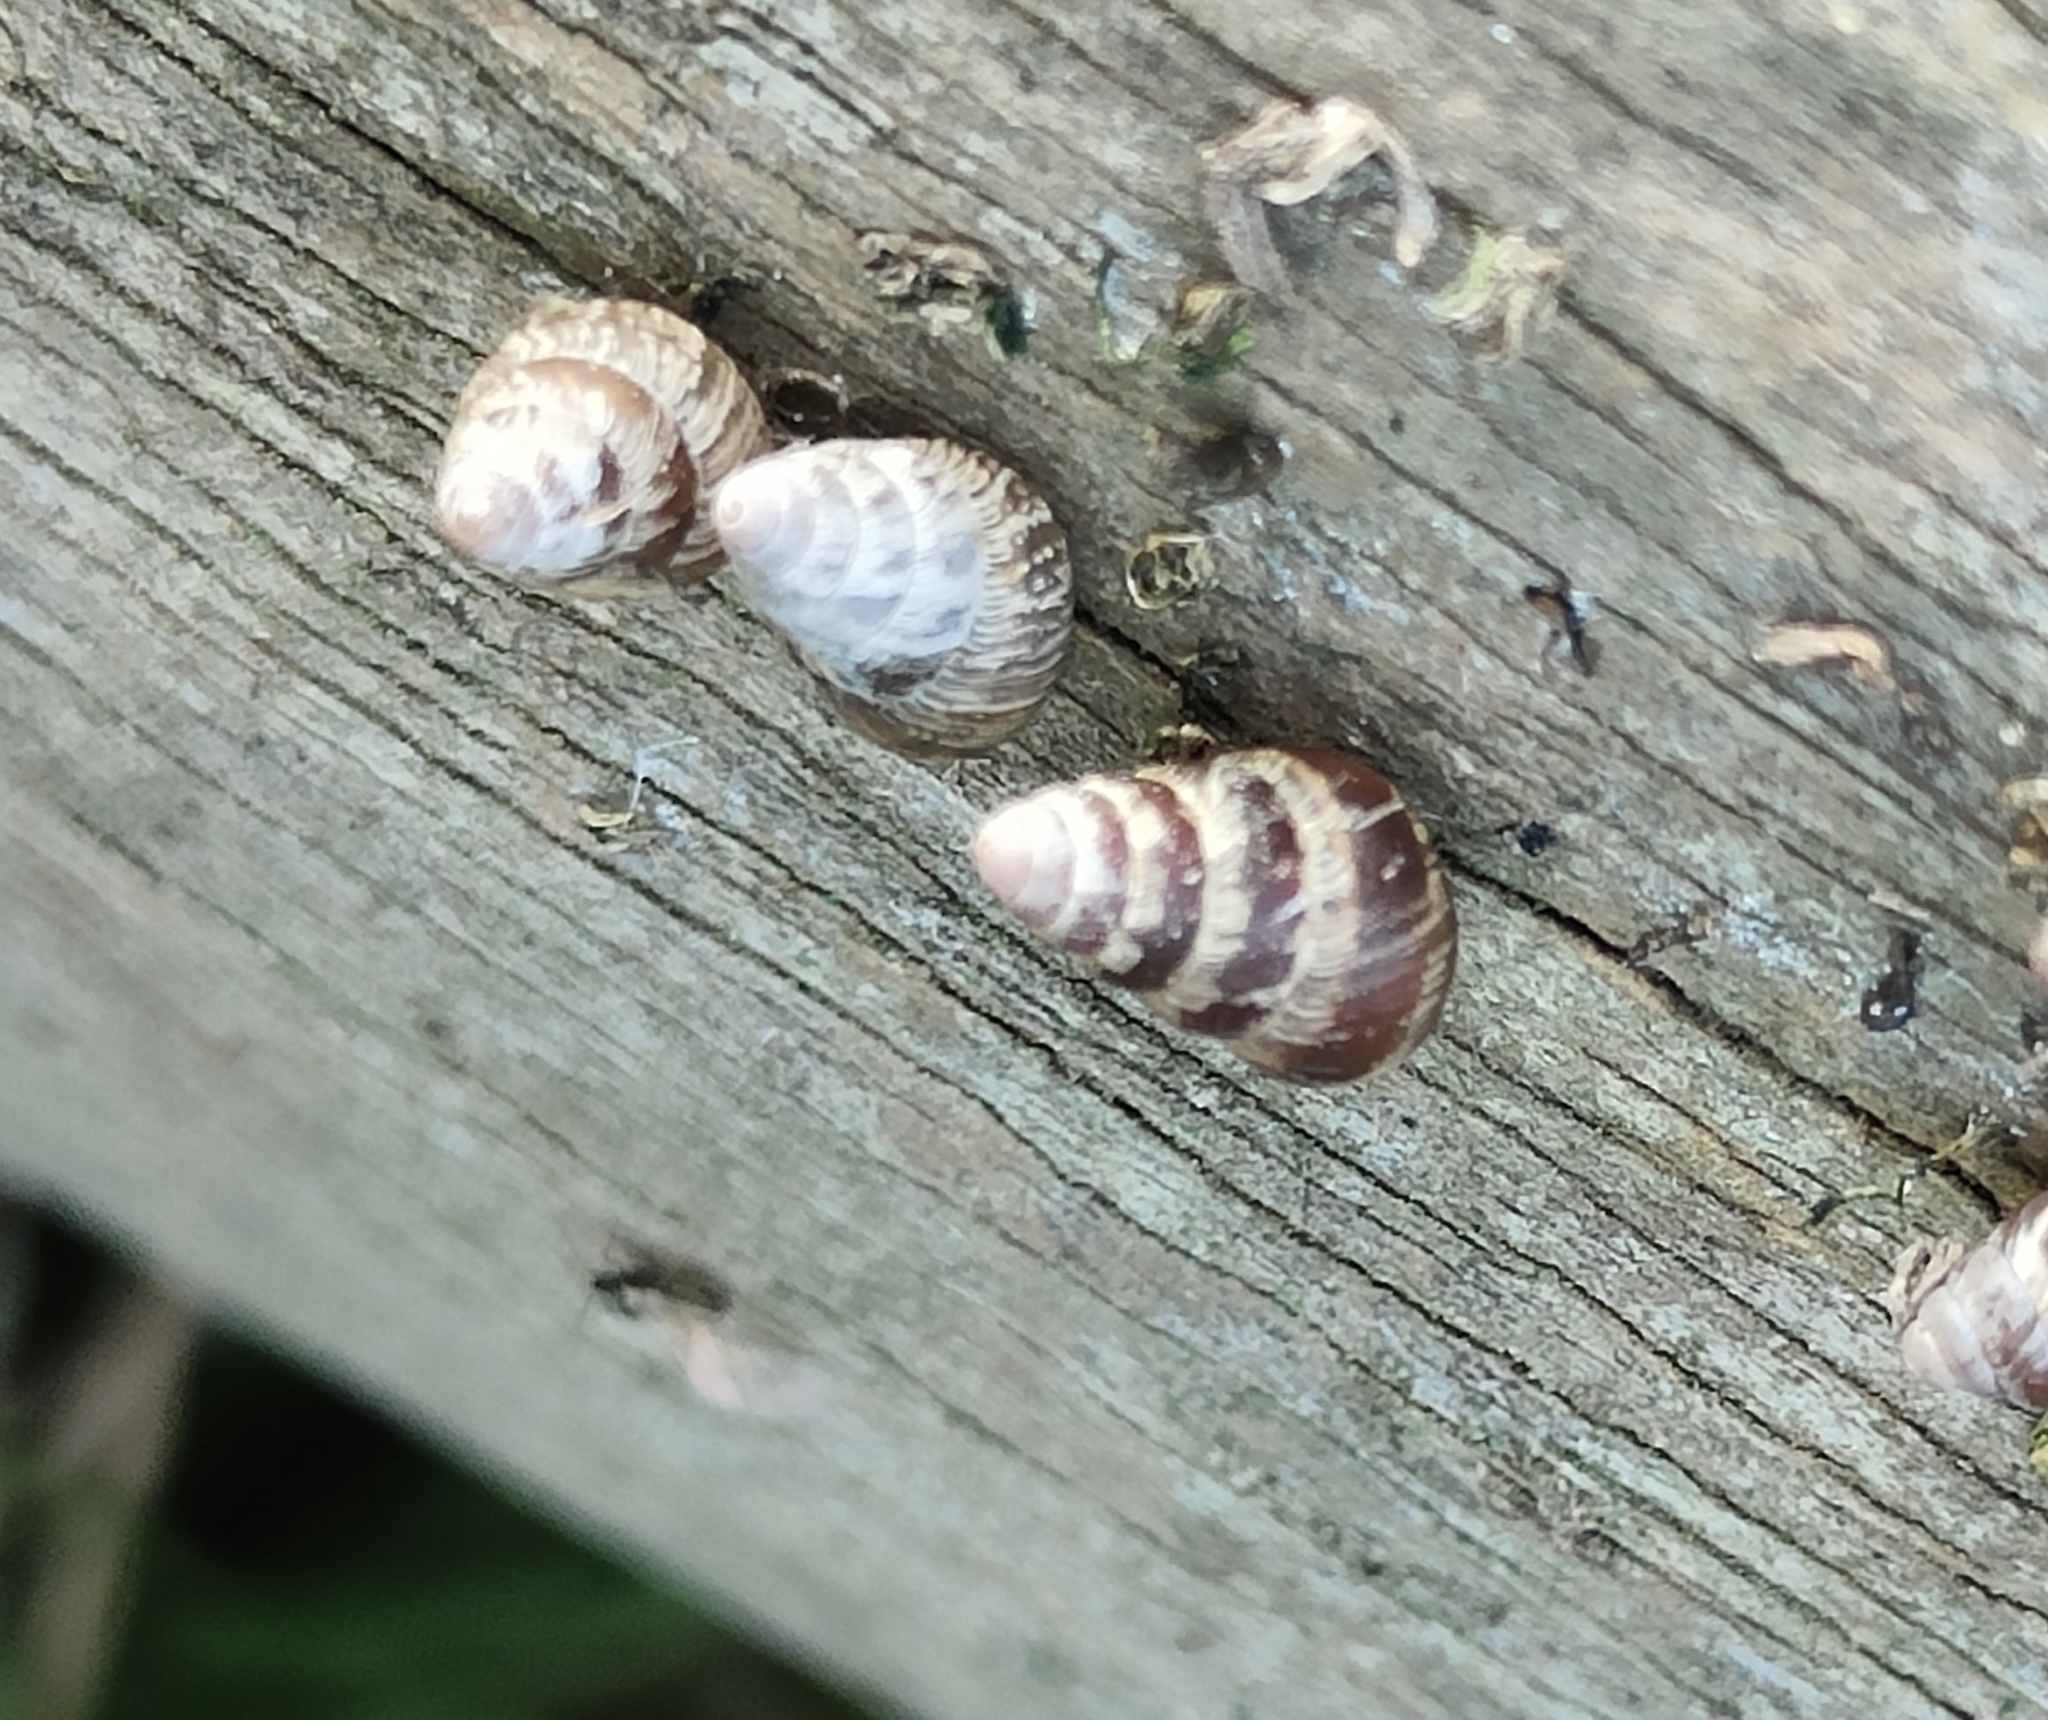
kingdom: Animalia
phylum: Mollusca
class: Gastropoda
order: Stylommatophora
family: Geomitridae
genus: Cochlicella
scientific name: Cochlicella barbara
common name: Potbellied helicellid
